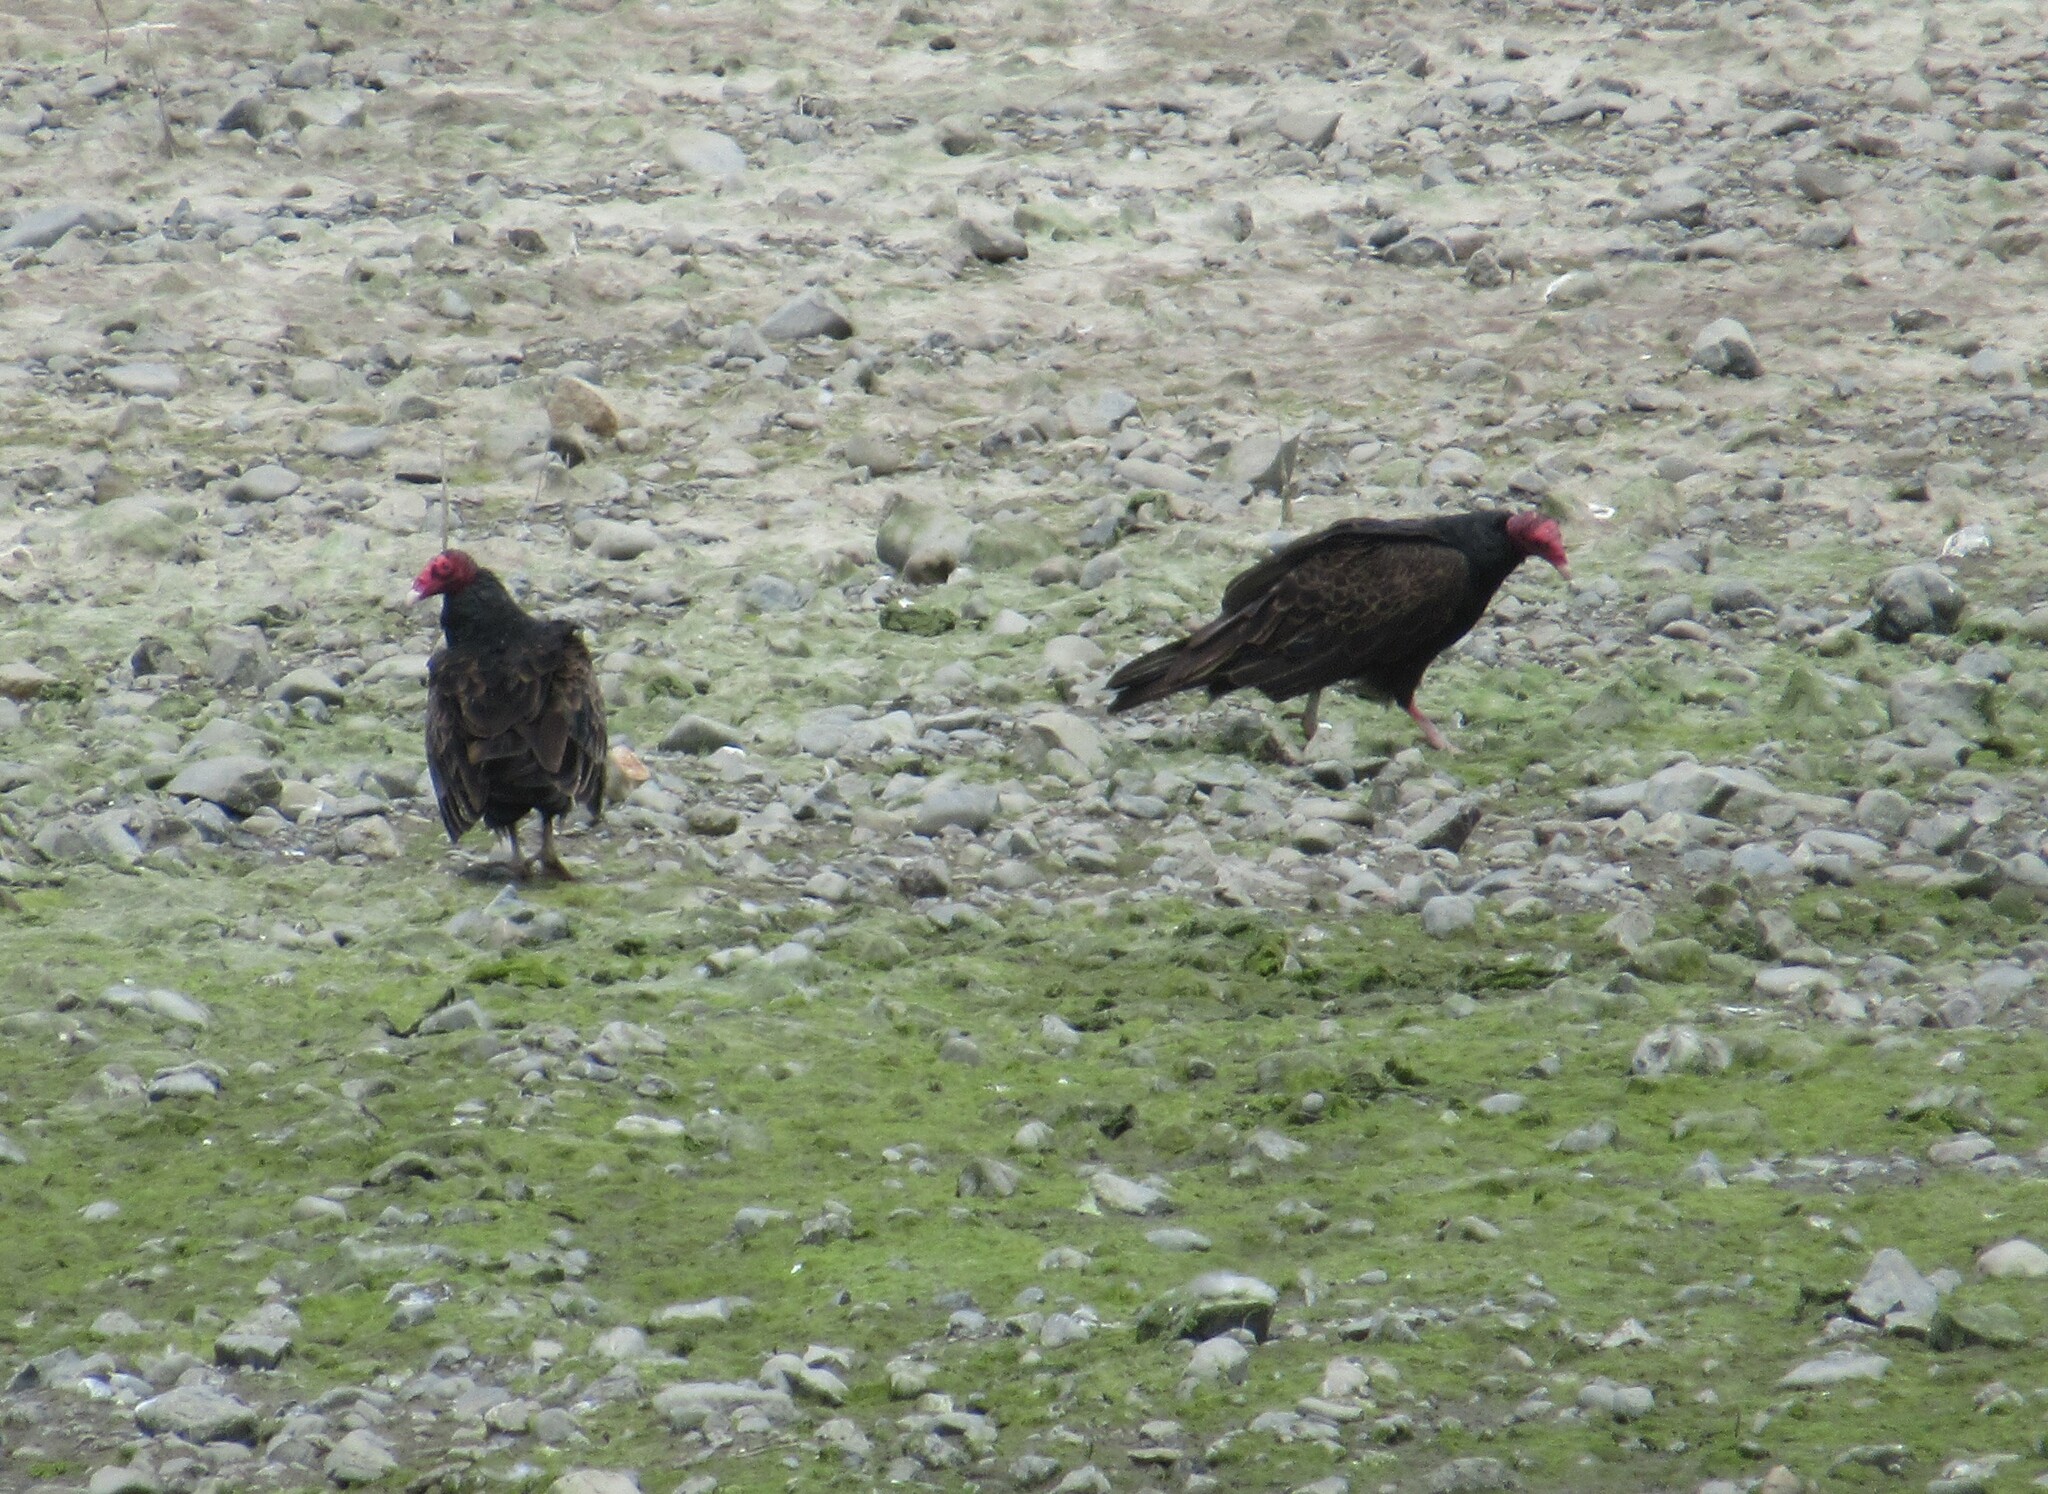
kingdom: Animalia
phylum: Chordata
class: Aves
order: Accipitriformes
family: Cathartidae
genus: Cathartes
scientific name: Cathartes aura
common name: Turkey vulture
